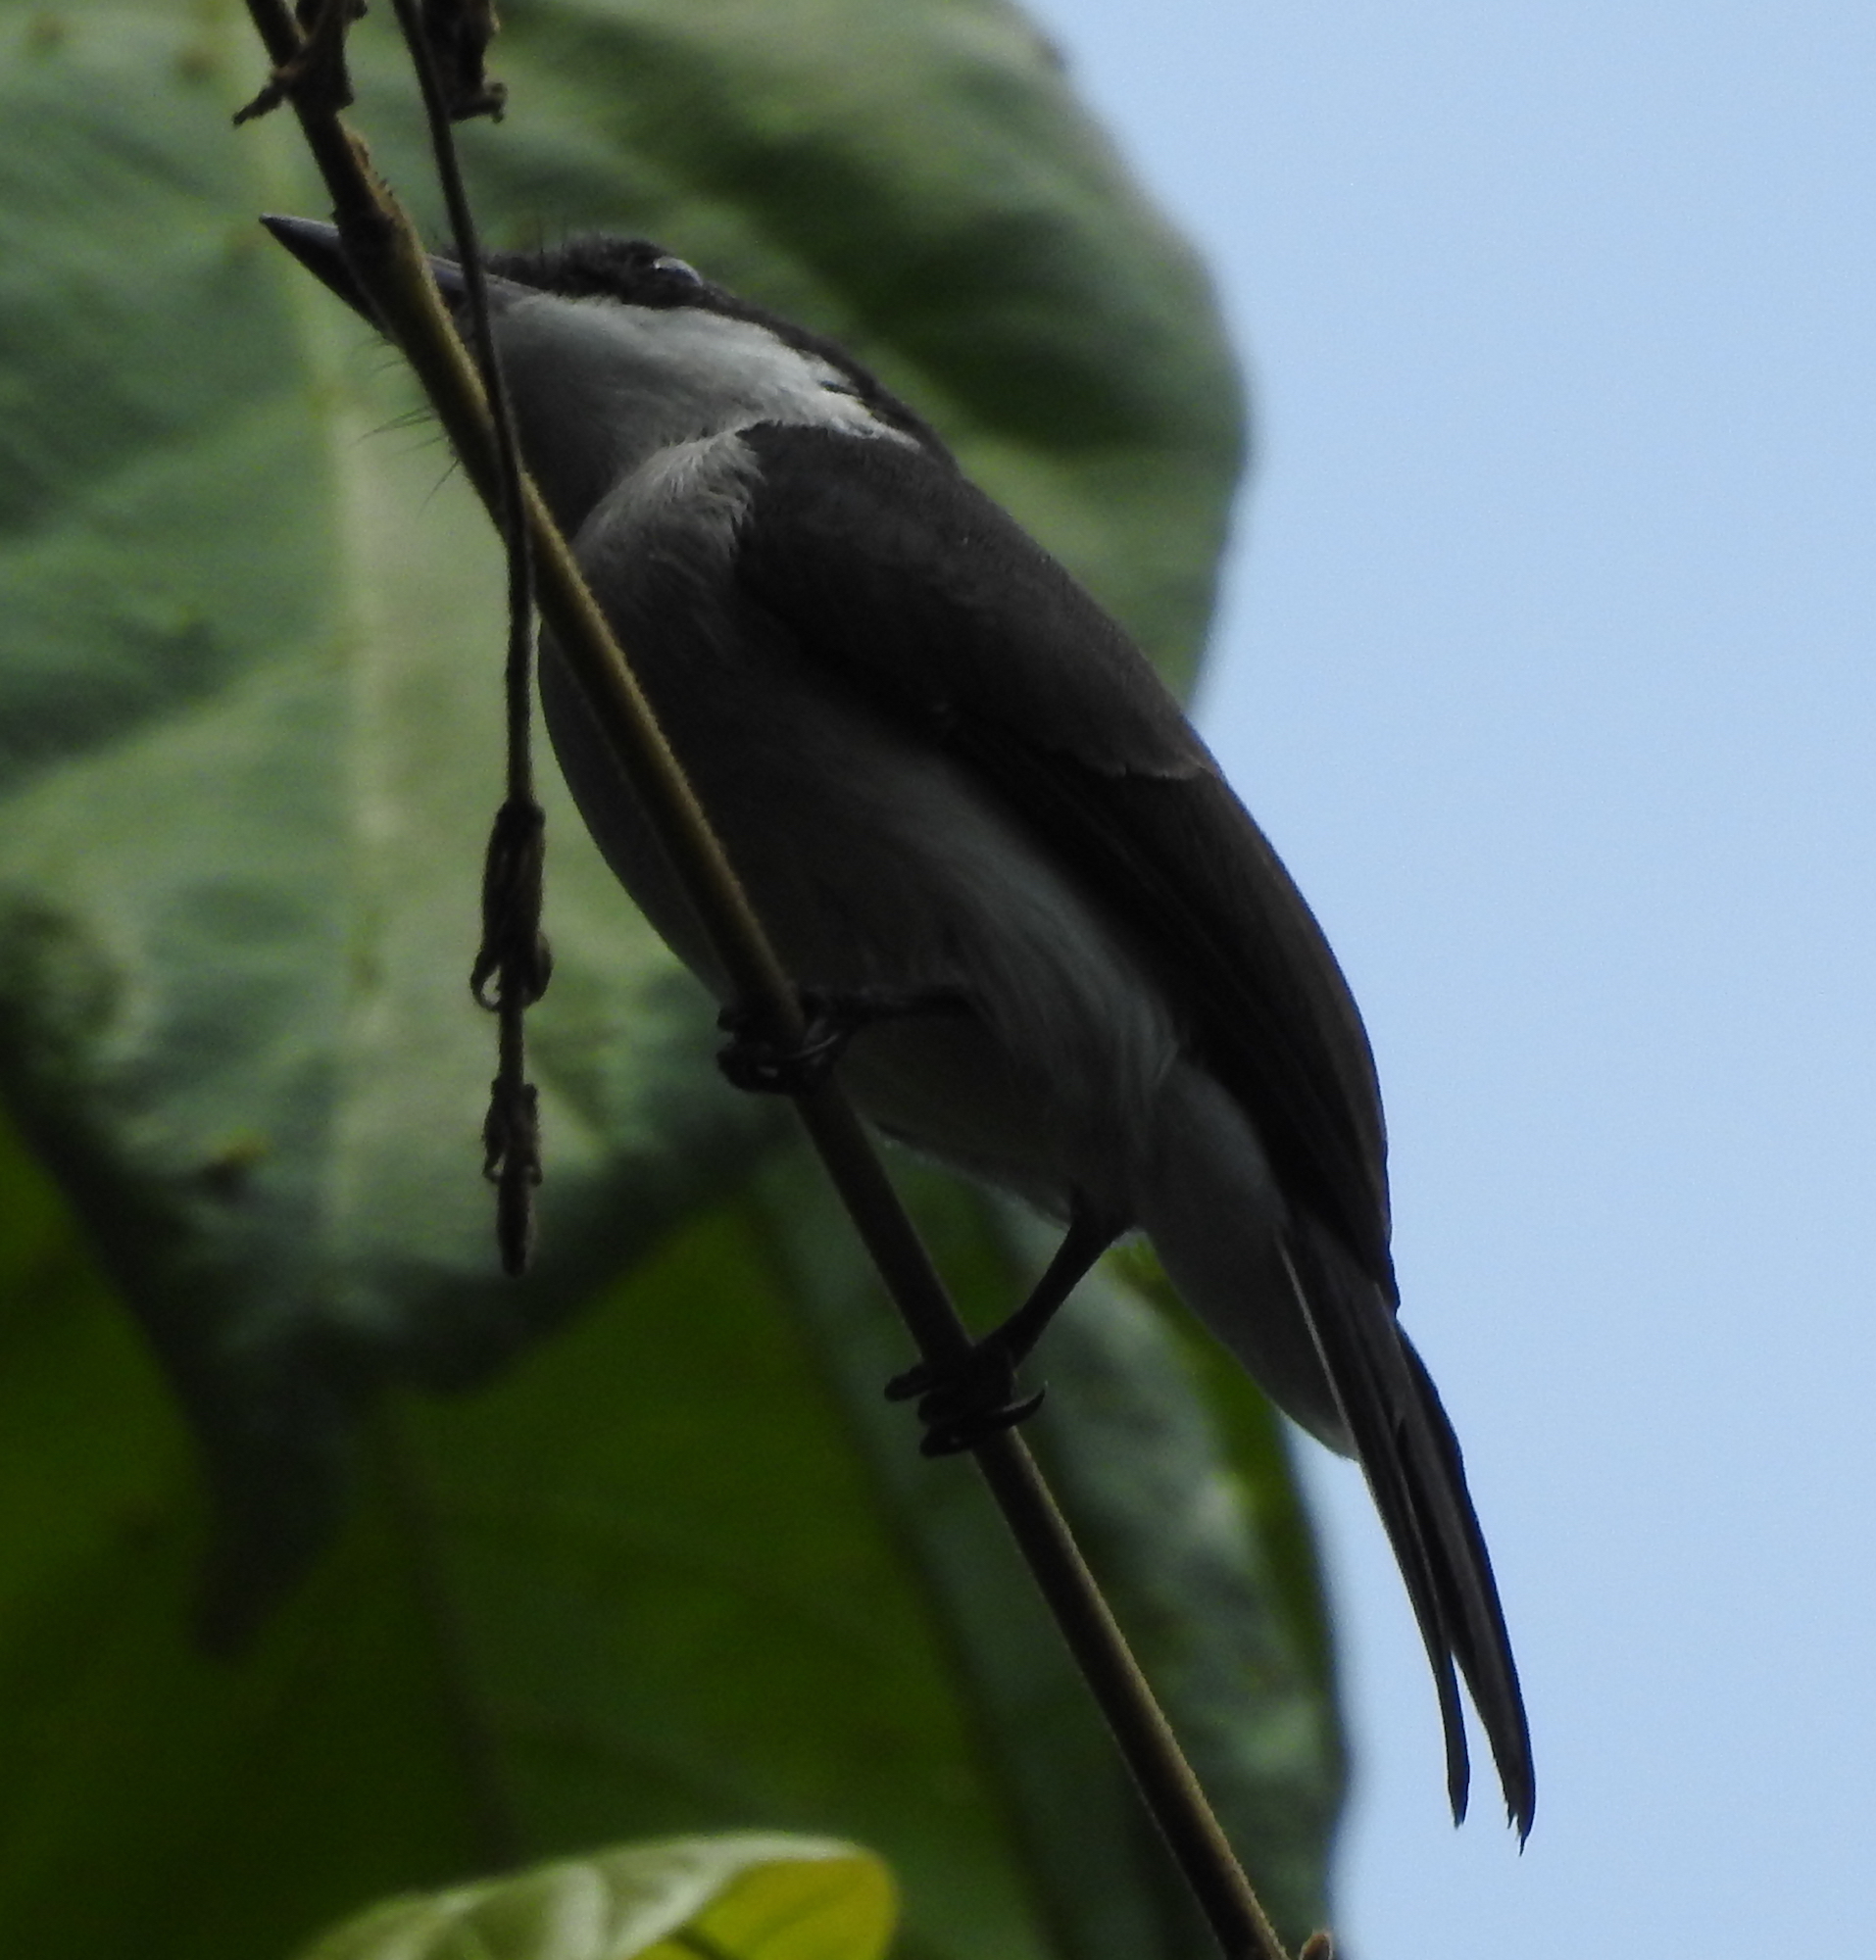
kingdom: Animalia
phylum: Chordata
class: Aves
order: Passeriformes
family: Tephrodornithidae
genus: Hemipus
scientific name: Hemipus hirundinaceus
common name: Black-winged flycatcher-shrike
